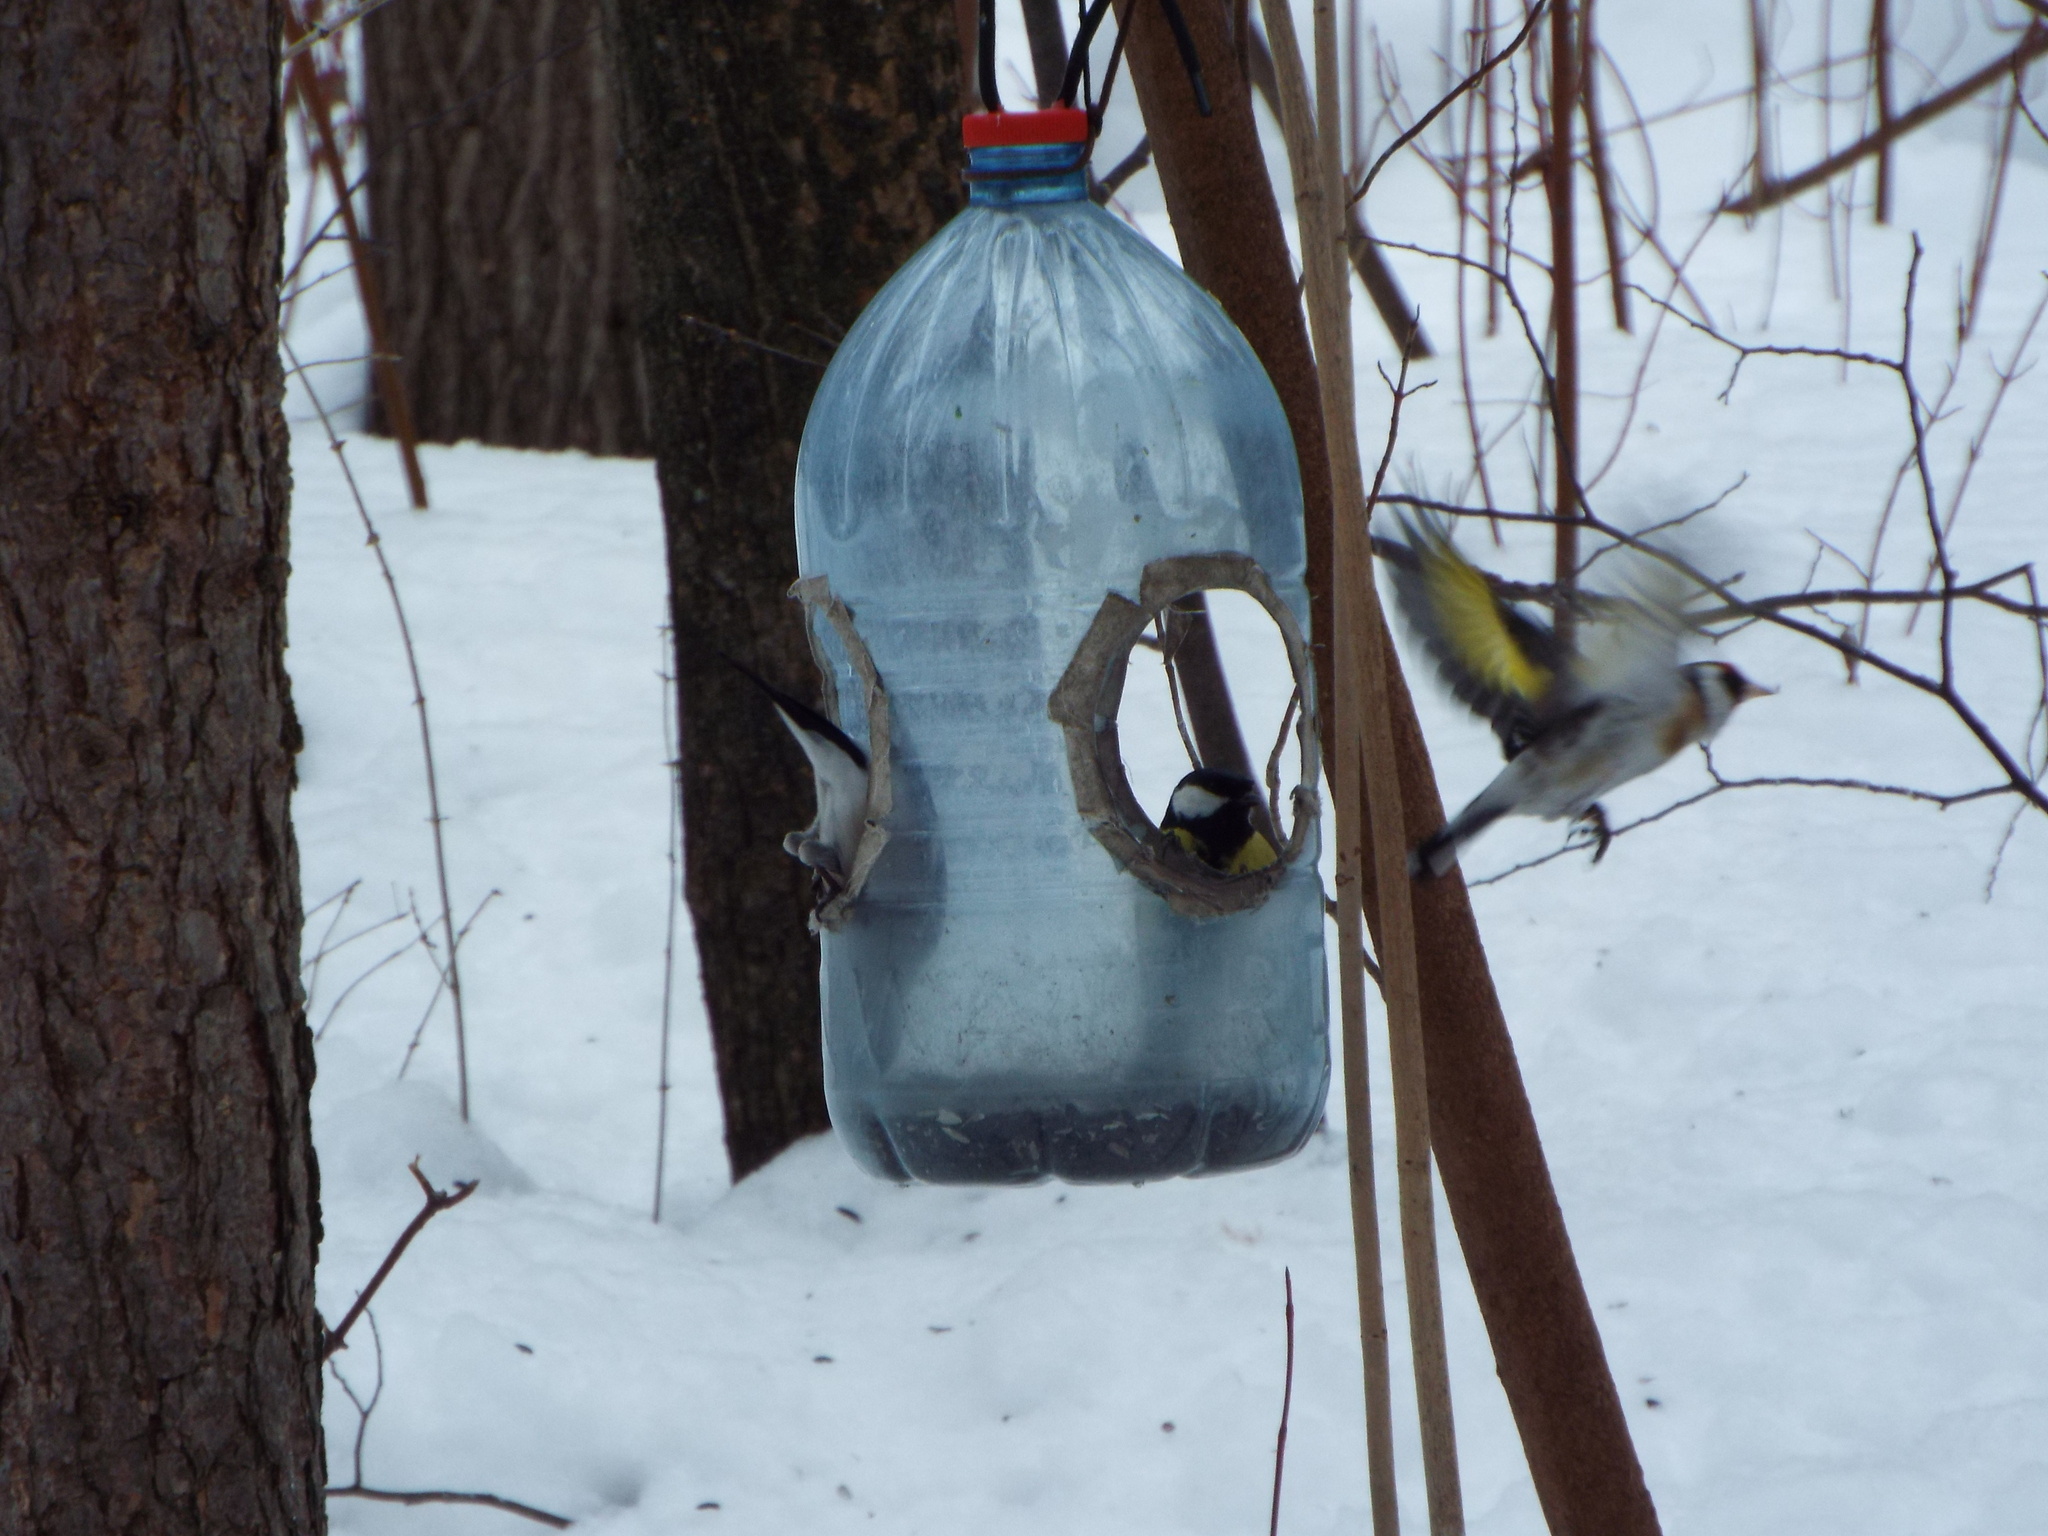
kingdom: Animalia
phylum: Chordata
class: Aves
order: Passeriformes
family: Fringillidae
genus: Carduelis
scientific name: Carduelis carduelis
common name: European goldfinch
